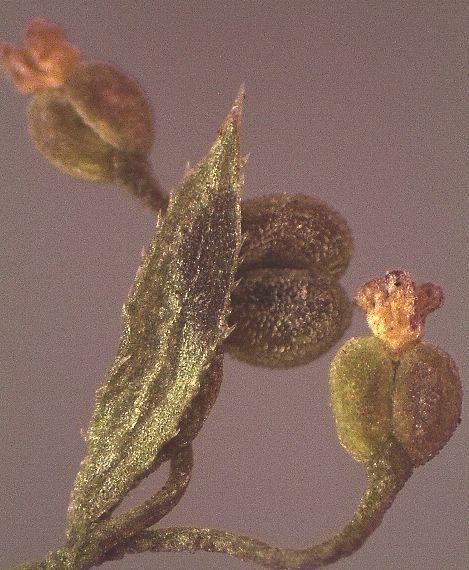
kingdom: Plantae
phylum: Tracheophyta
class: Magnoliopsida
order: Gentianales
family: Rubiaceae
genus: Galium
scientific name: Galium divaricatum
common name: Lamarck's bedstraw
